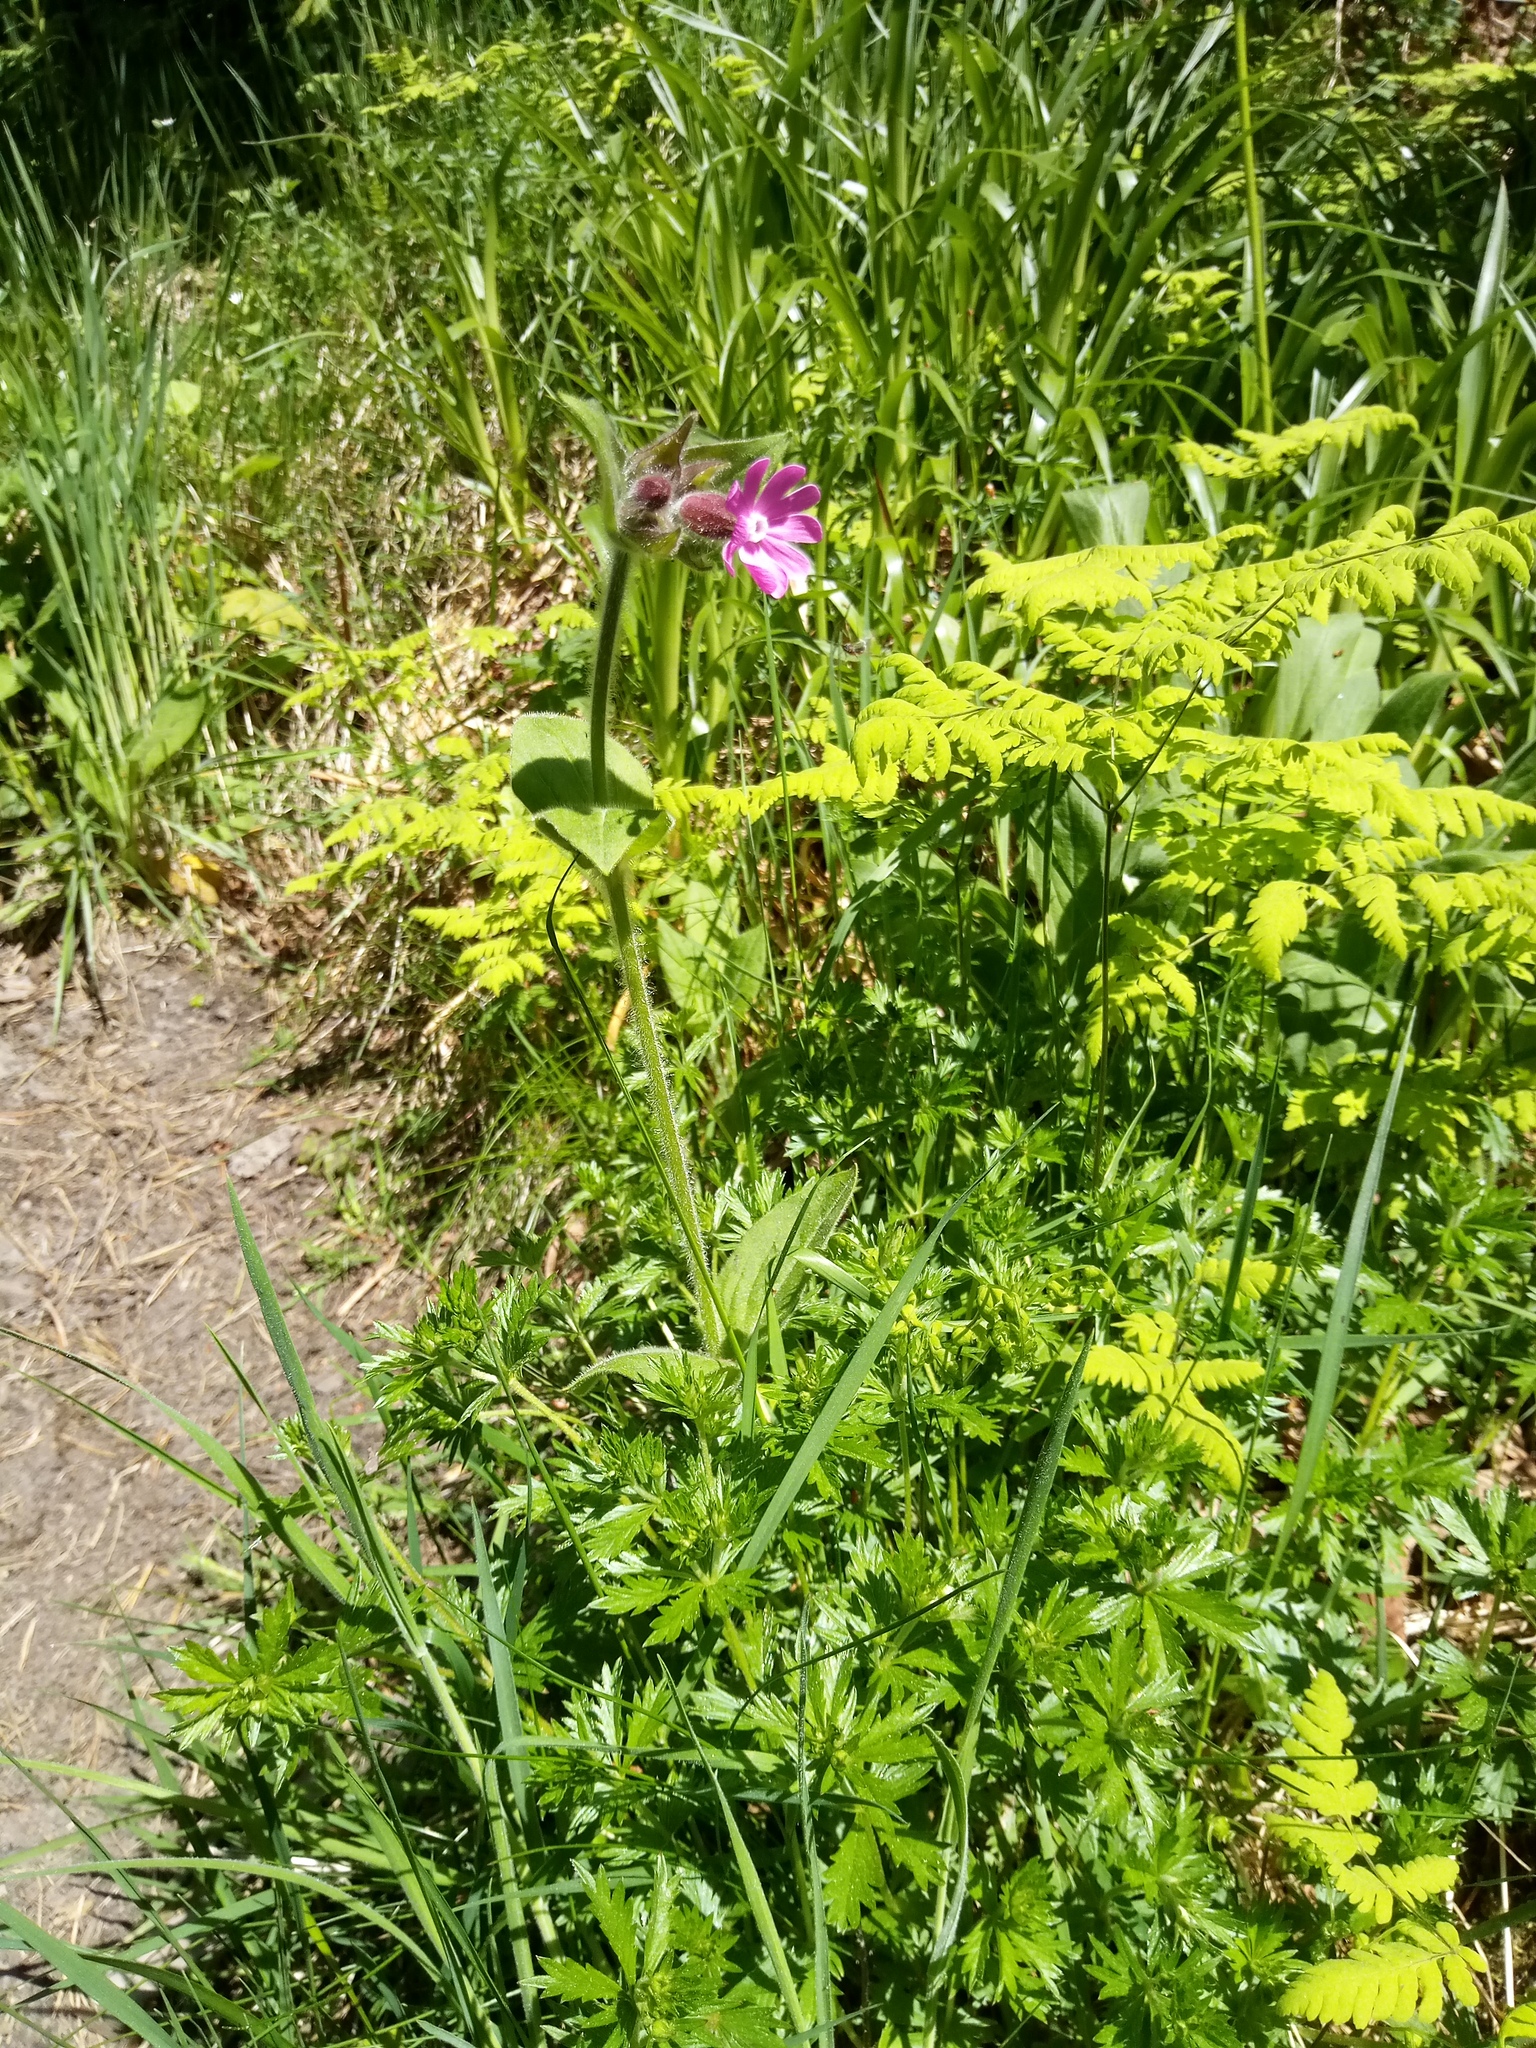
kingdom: Plantae
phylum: Tracheophyta
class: Magnoliopsida
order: Caryophyllales
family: Caryophyllaceae
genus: Silene
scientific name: Silene dioica
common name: Red campion
